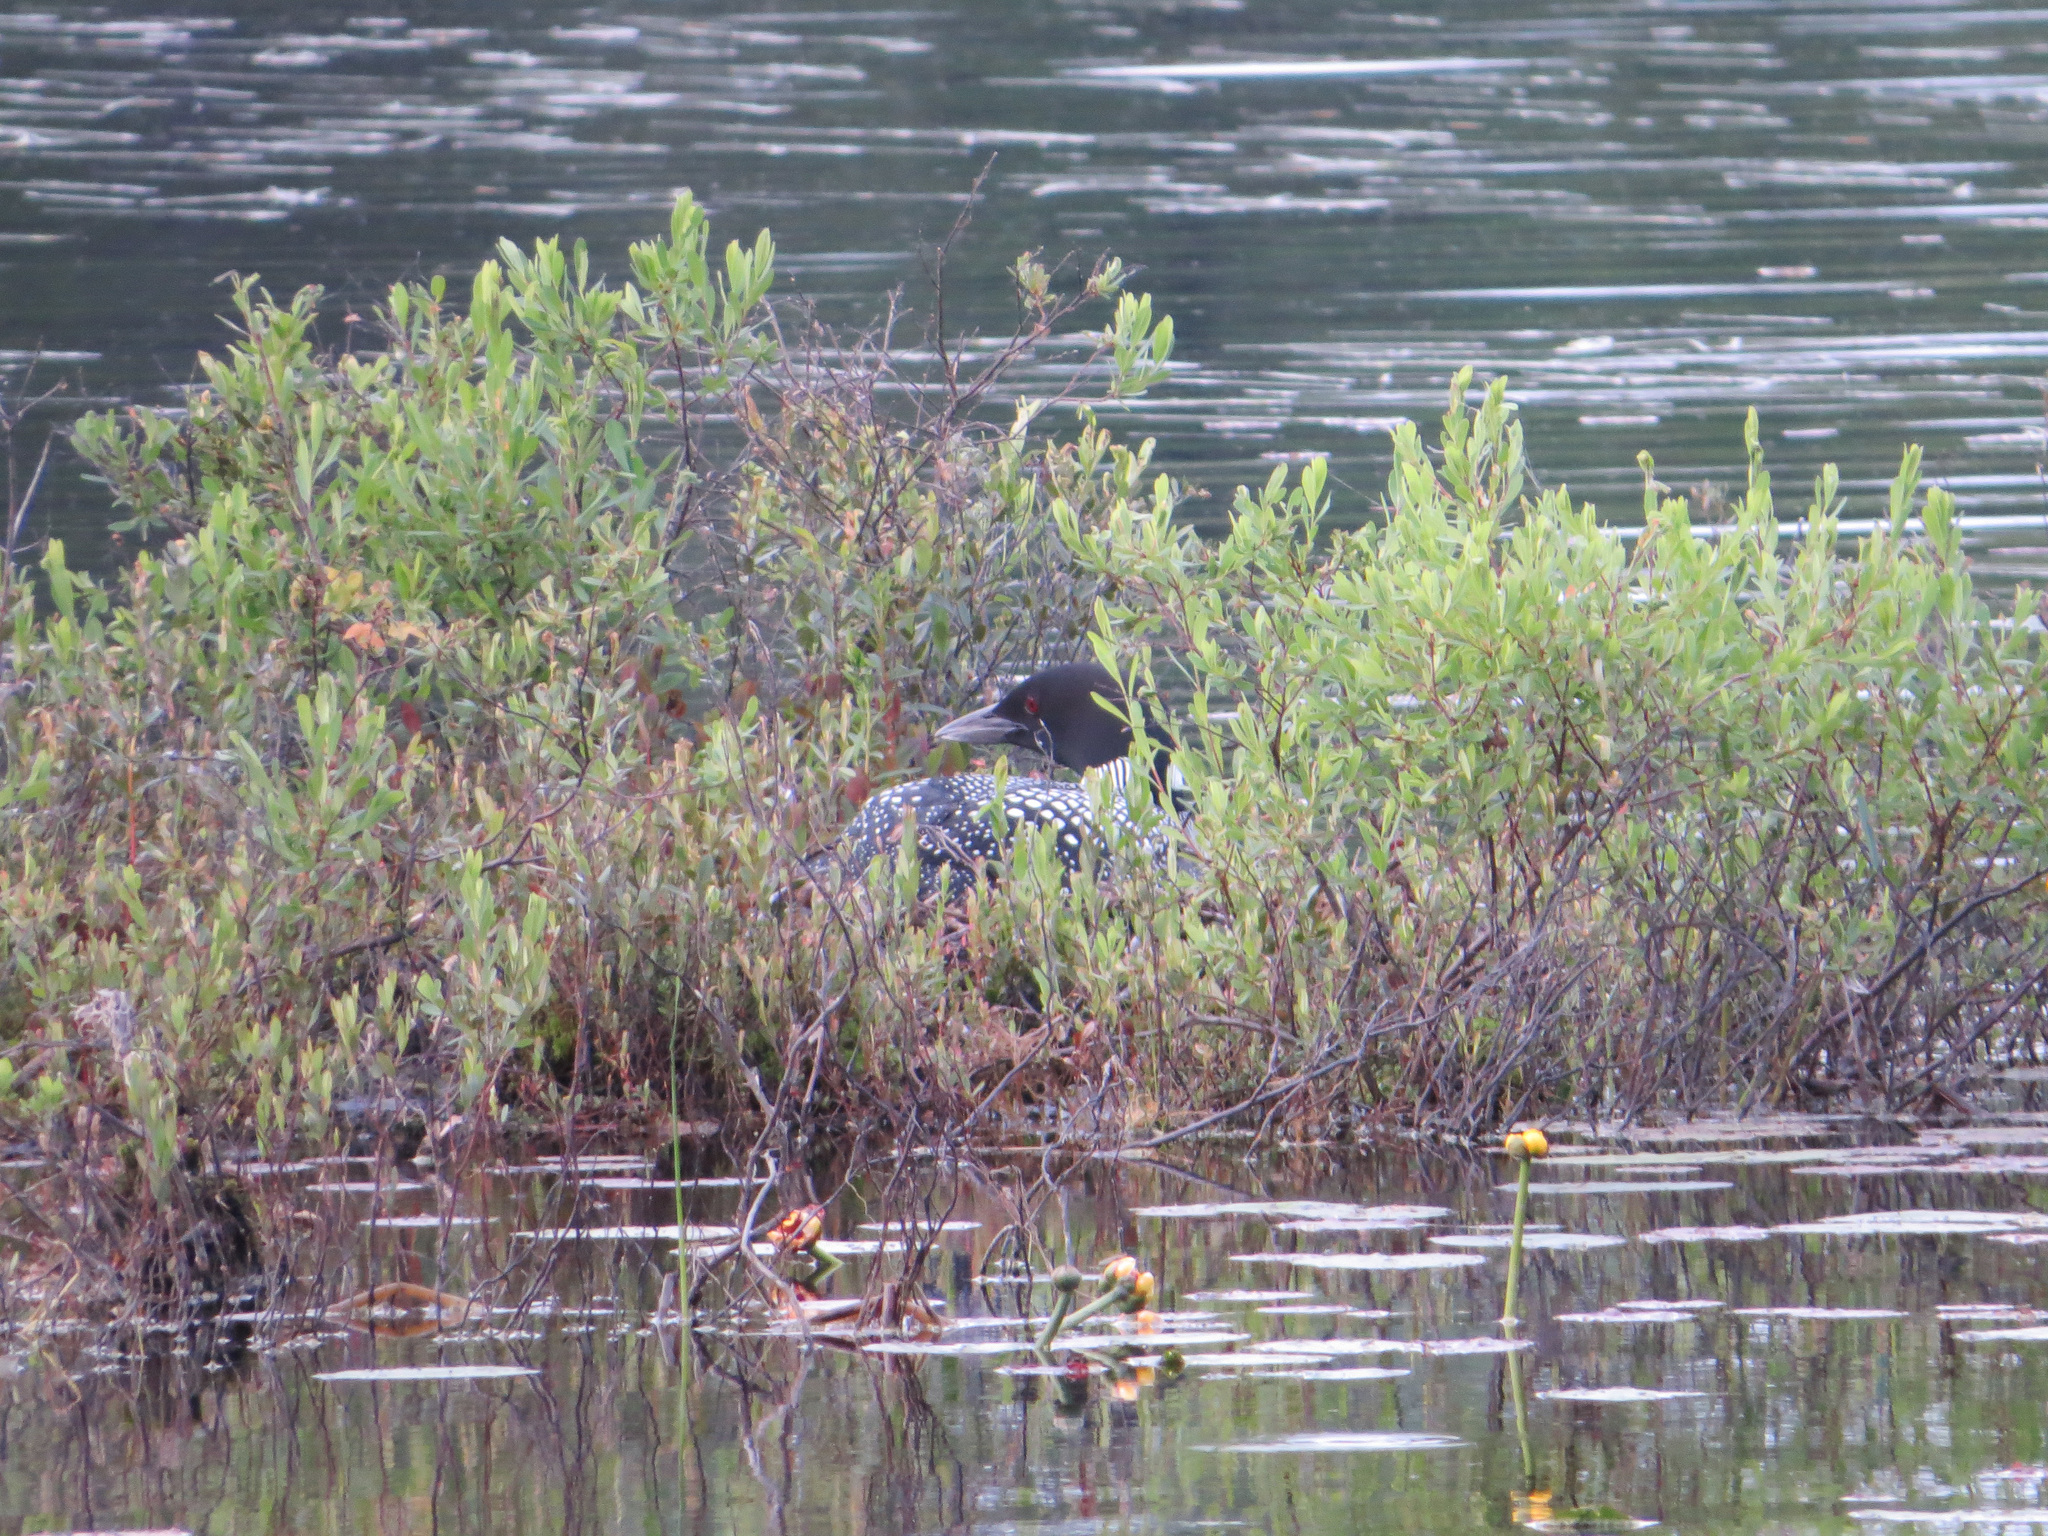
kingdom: Animalia
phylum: Chordata
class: Aves
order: Gaviiformes
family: Gaviidae
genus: Gavia
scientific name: Gavia immer
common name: Common loon
